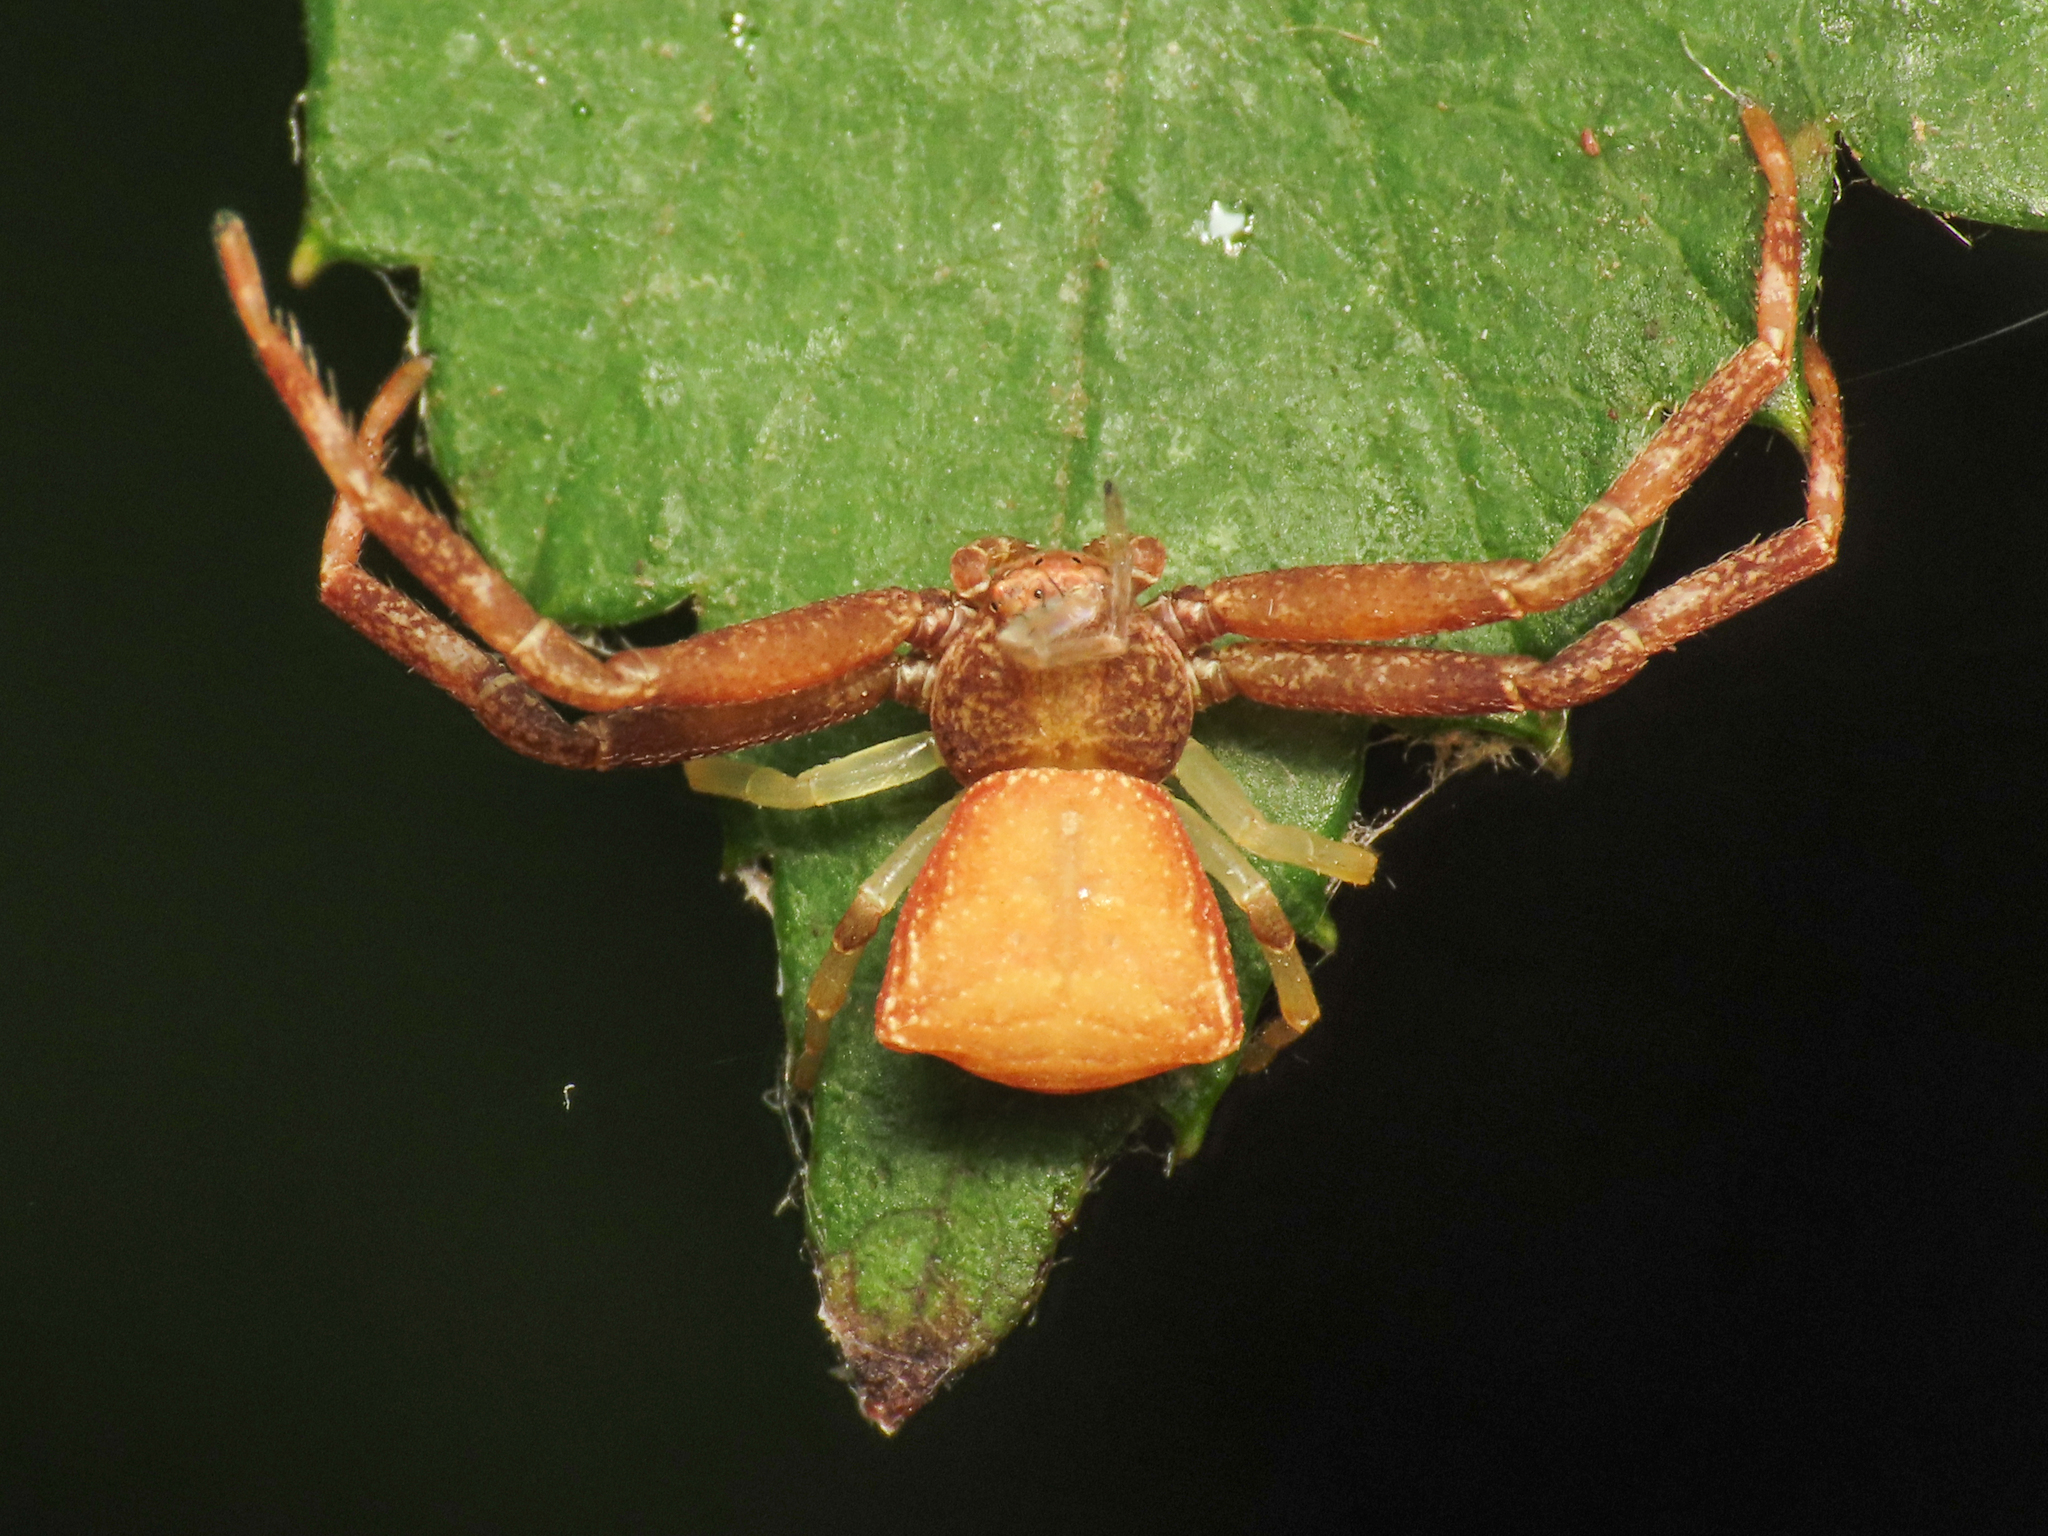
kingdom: Animalia
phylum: Arthropoda
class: Arachnida
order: Araneae
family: Thomisidae
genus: Pistius
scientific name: Pistius truncatus
